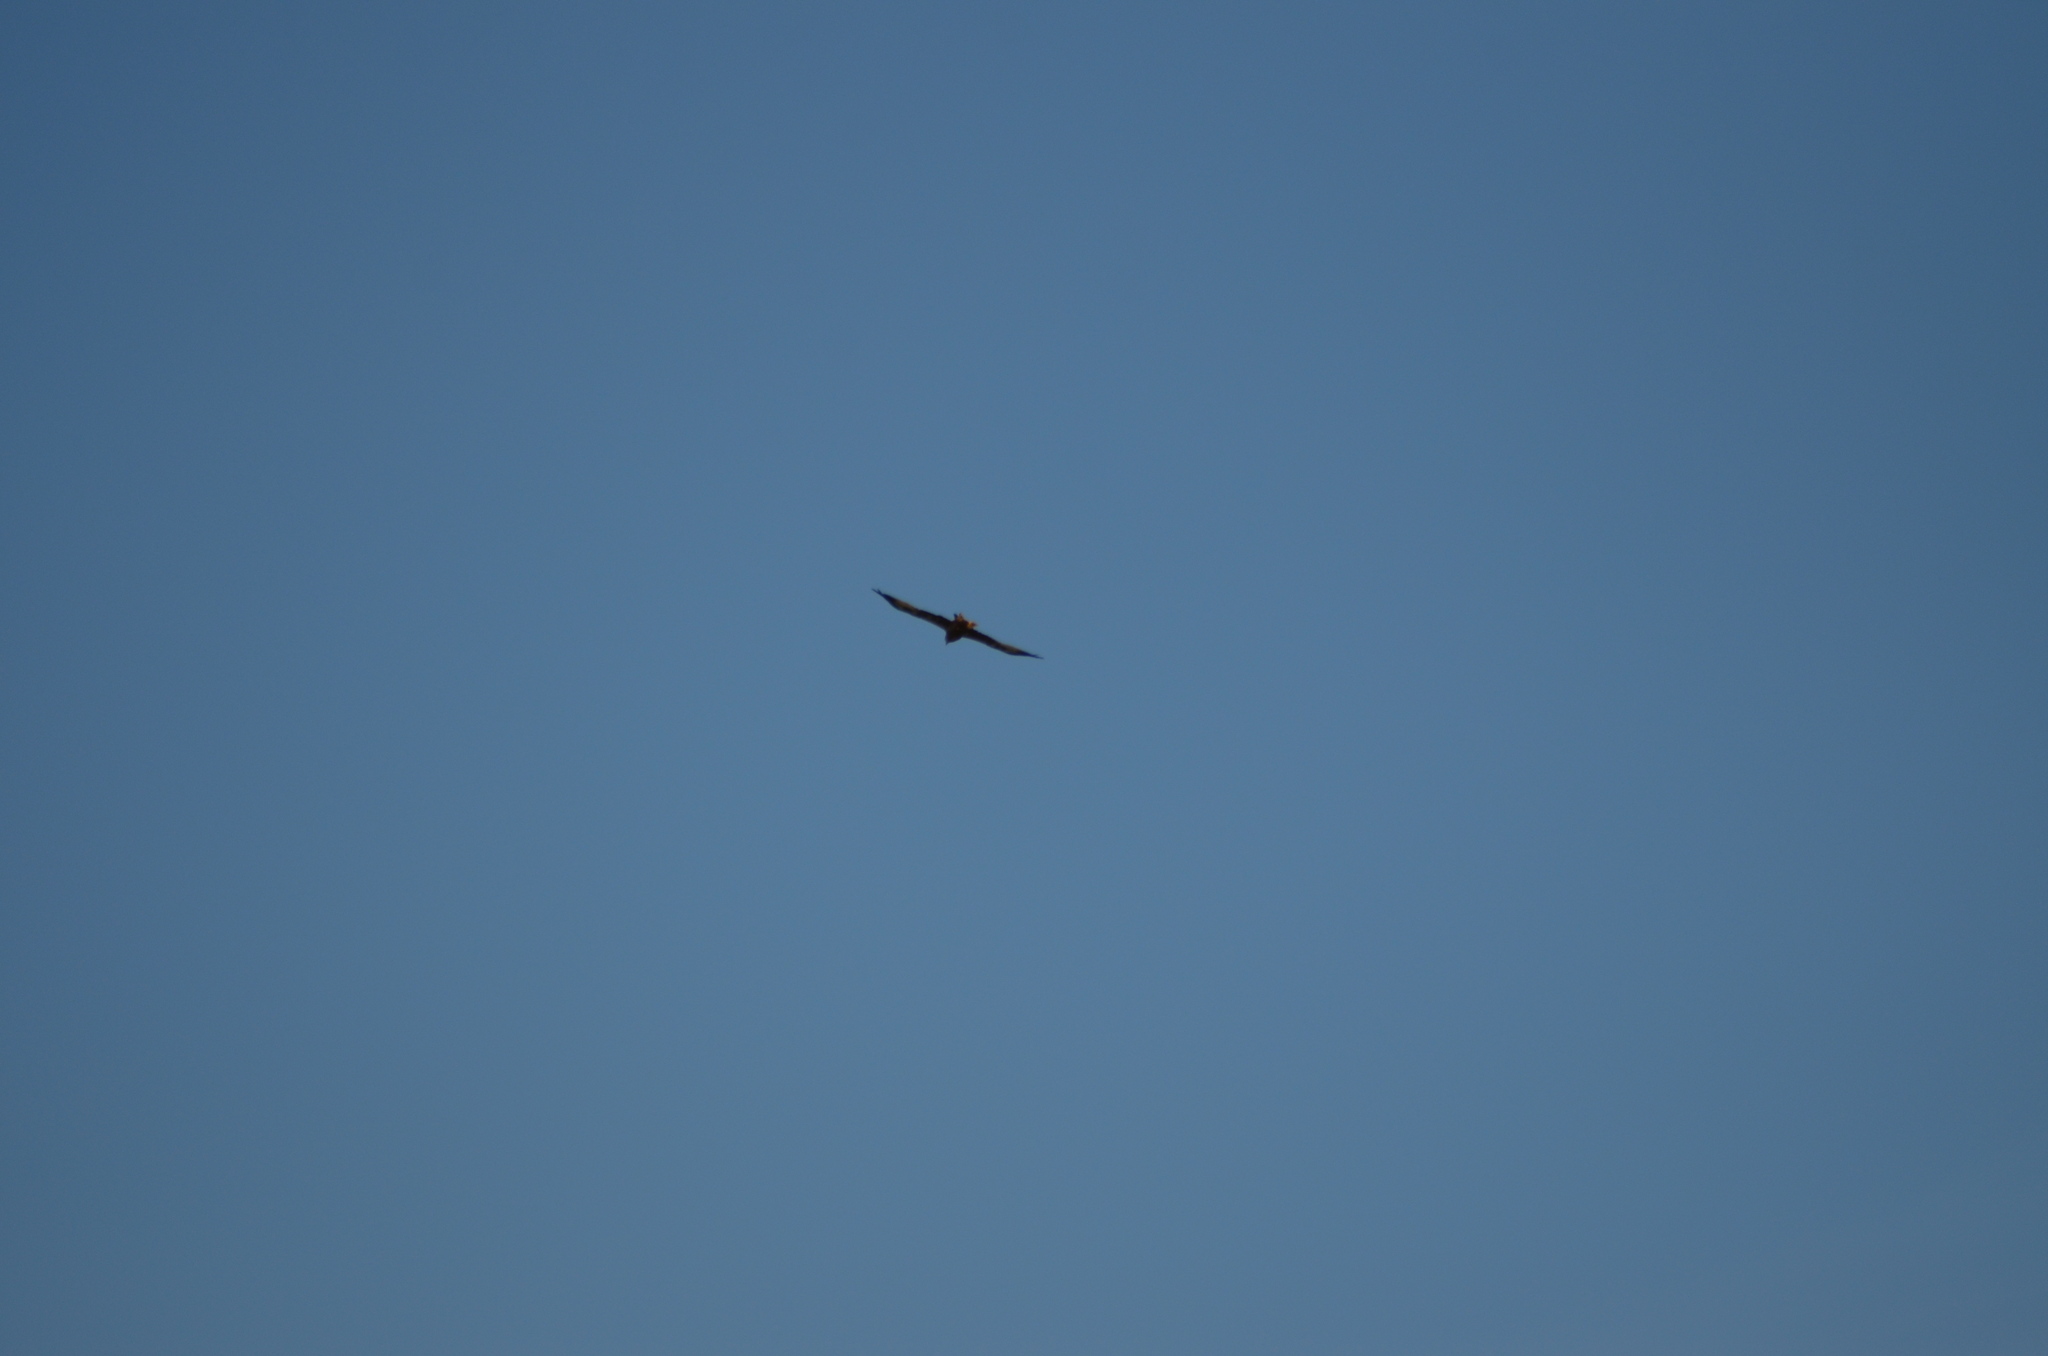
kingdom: Animalia
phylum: Chordata
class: Aves
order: Accipitriformes
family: Accipitridae
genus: Milvus
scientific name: Milvus milvus
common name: Red kite
